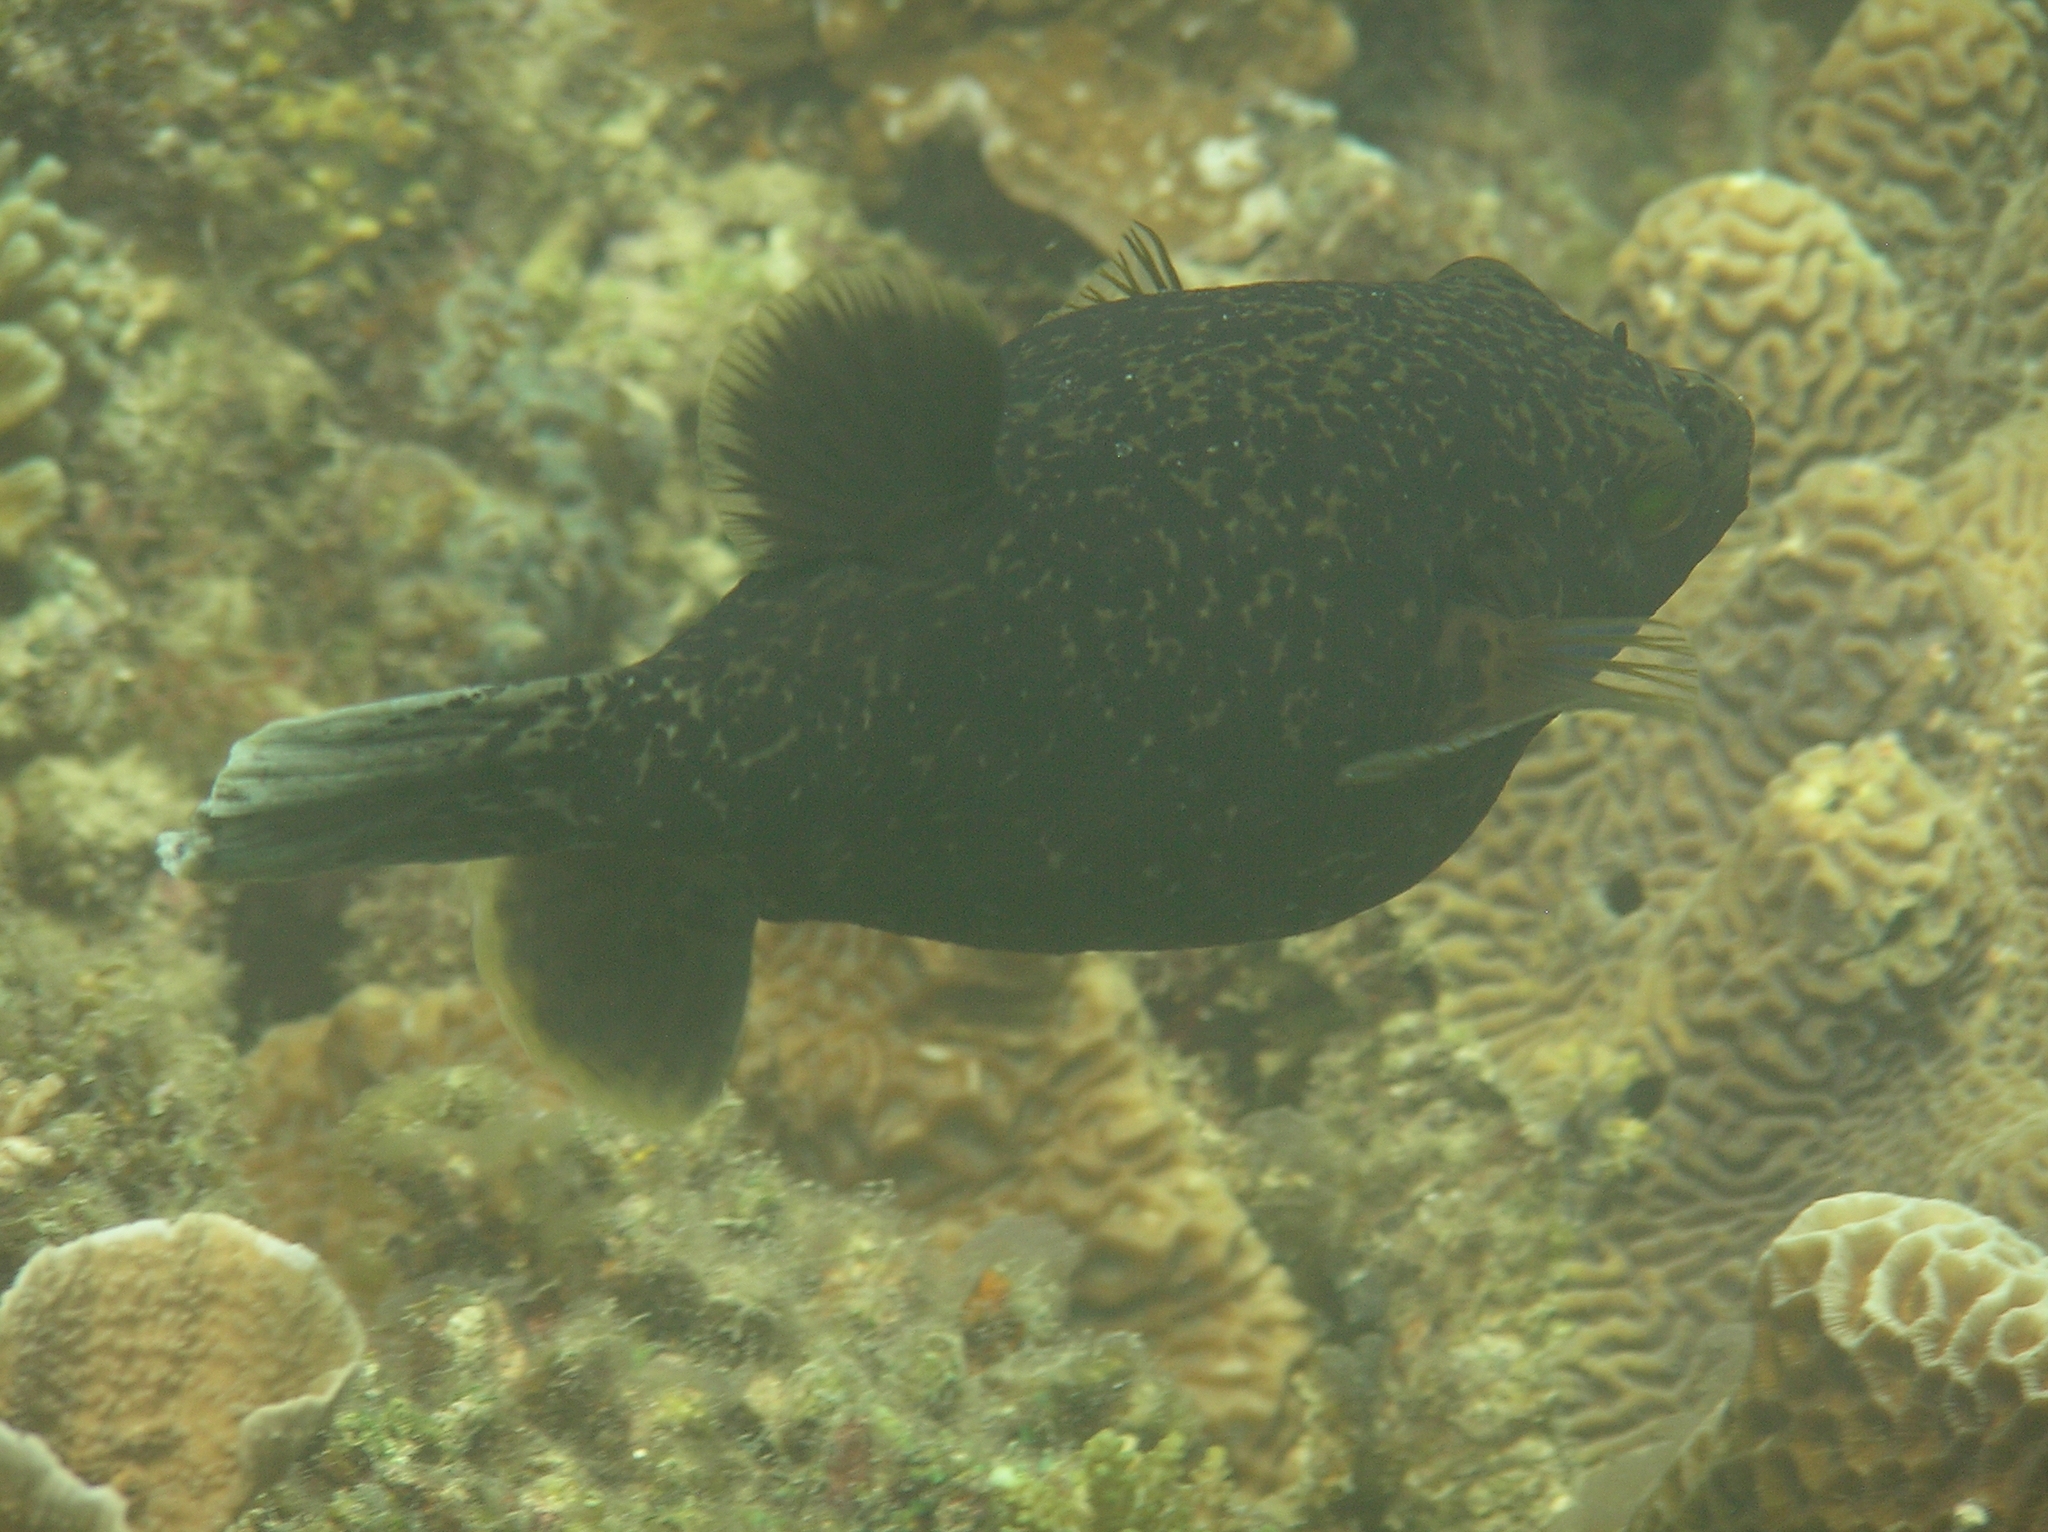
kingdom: Animalia
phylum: Chordata
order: Tetraodontiformes
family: Tetraodontidae
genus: Arothron
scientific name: Arothron nigropunctatus
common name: Black spotted blow fish
